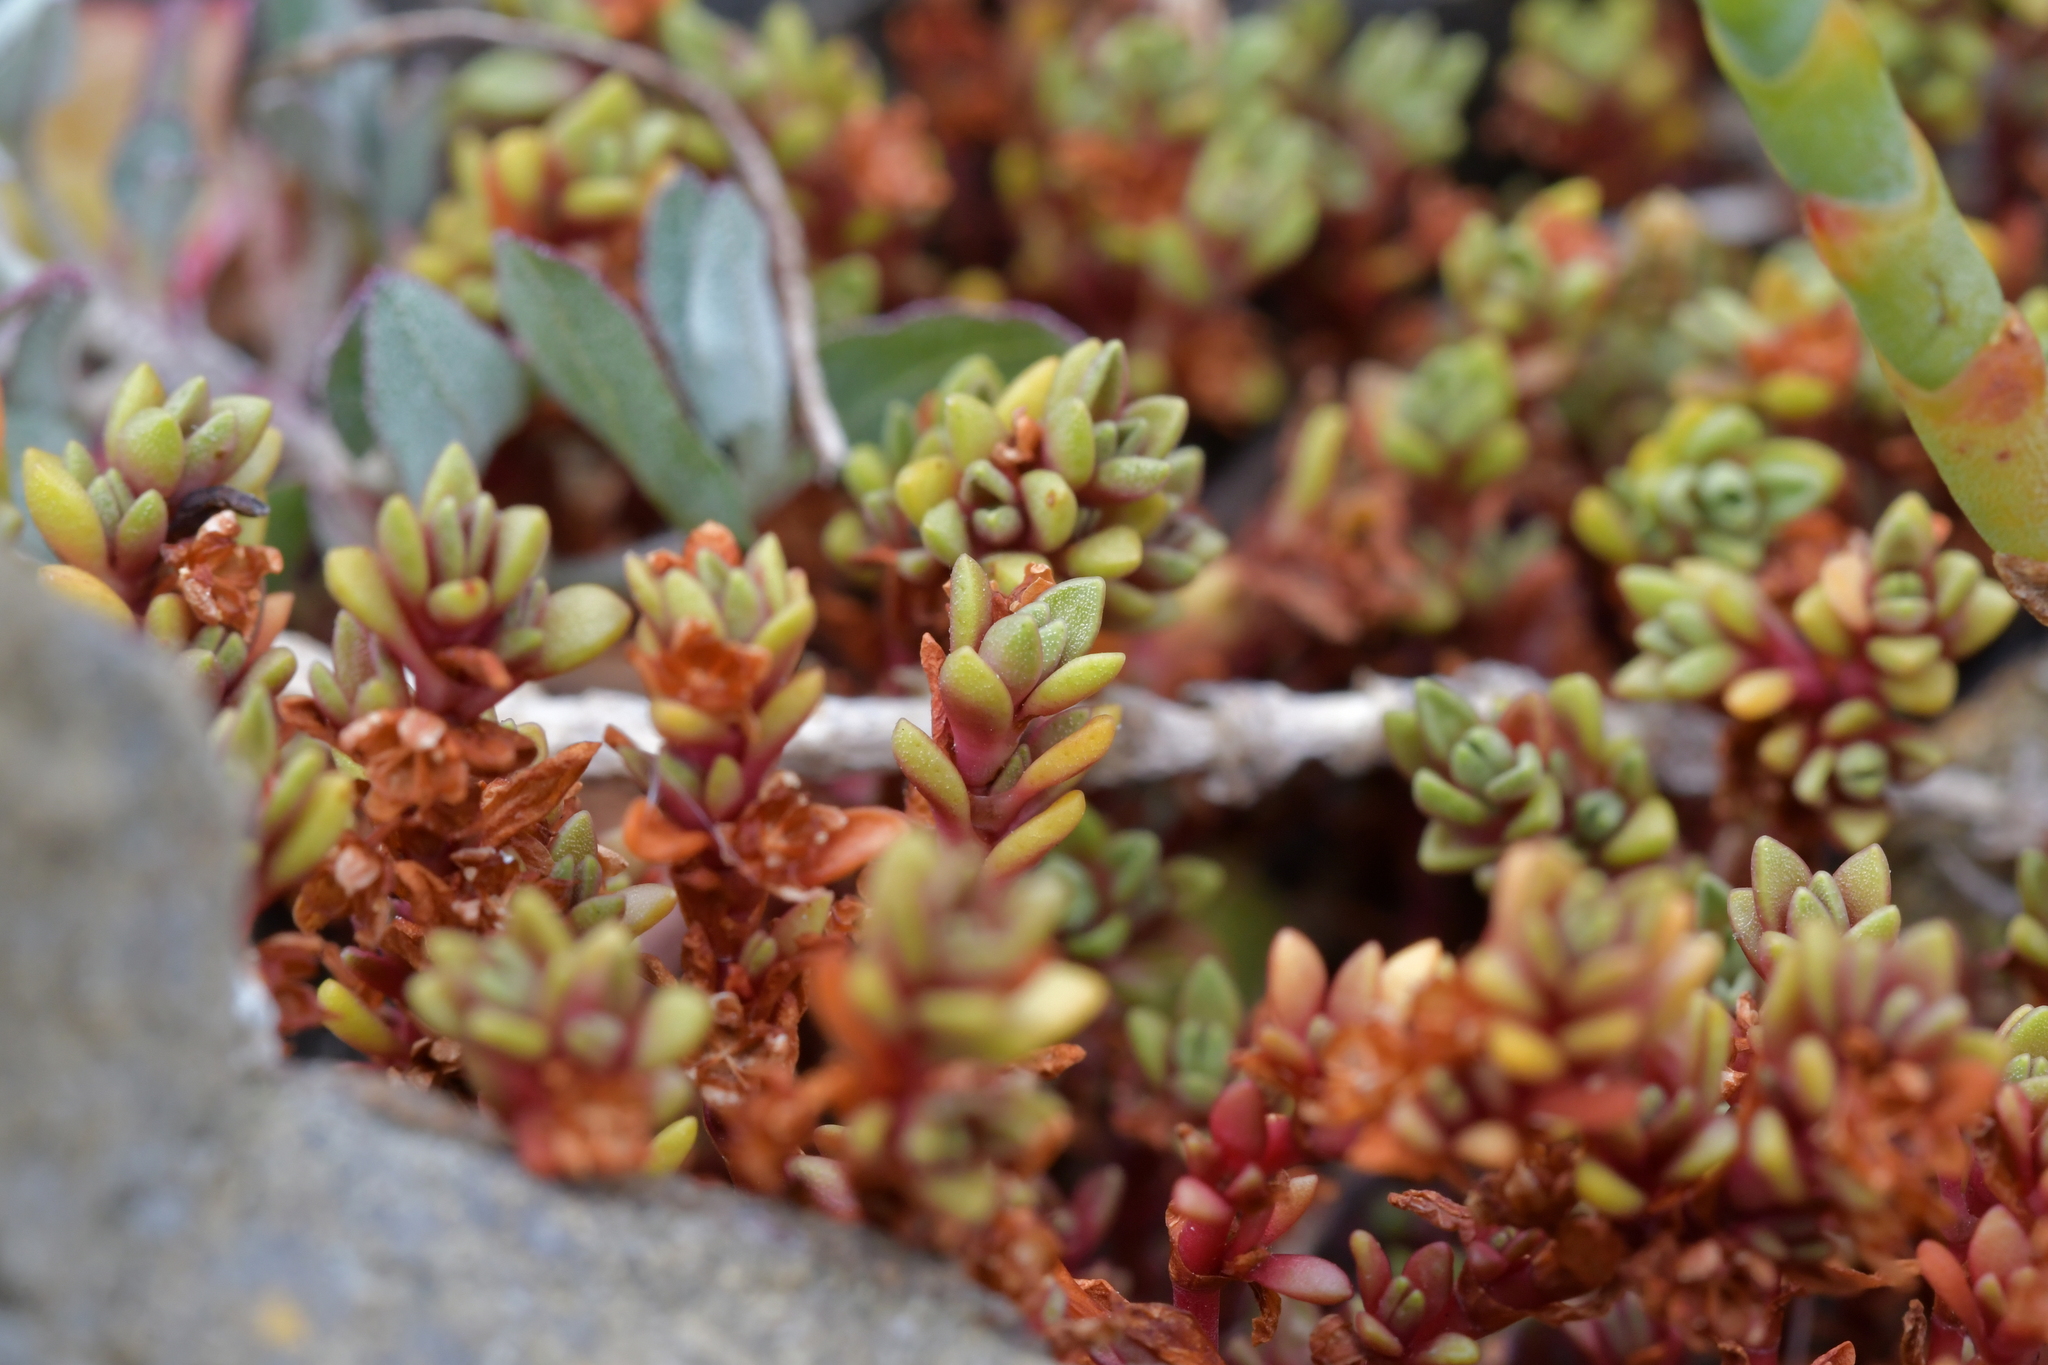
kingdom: Plantae
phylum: Tracheophyta
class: Magnoliopsida
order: Saxifragales
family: Crassulaceae
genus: Crassula
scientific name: Crassula moschata
